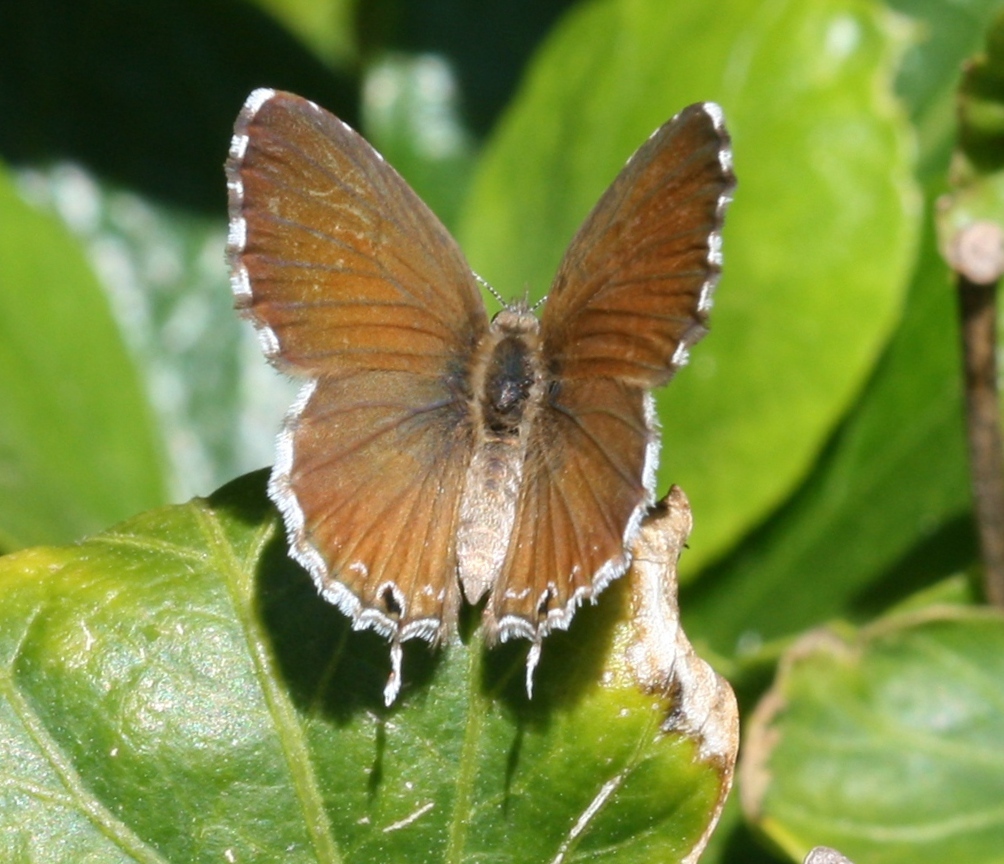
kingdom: Animalia
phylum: Arthropoda
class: Insecta
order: Lepidoptera
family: Lycaenidae
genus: Cacyreus
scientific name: Cacyreus marshalli
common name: Geranium bronze
